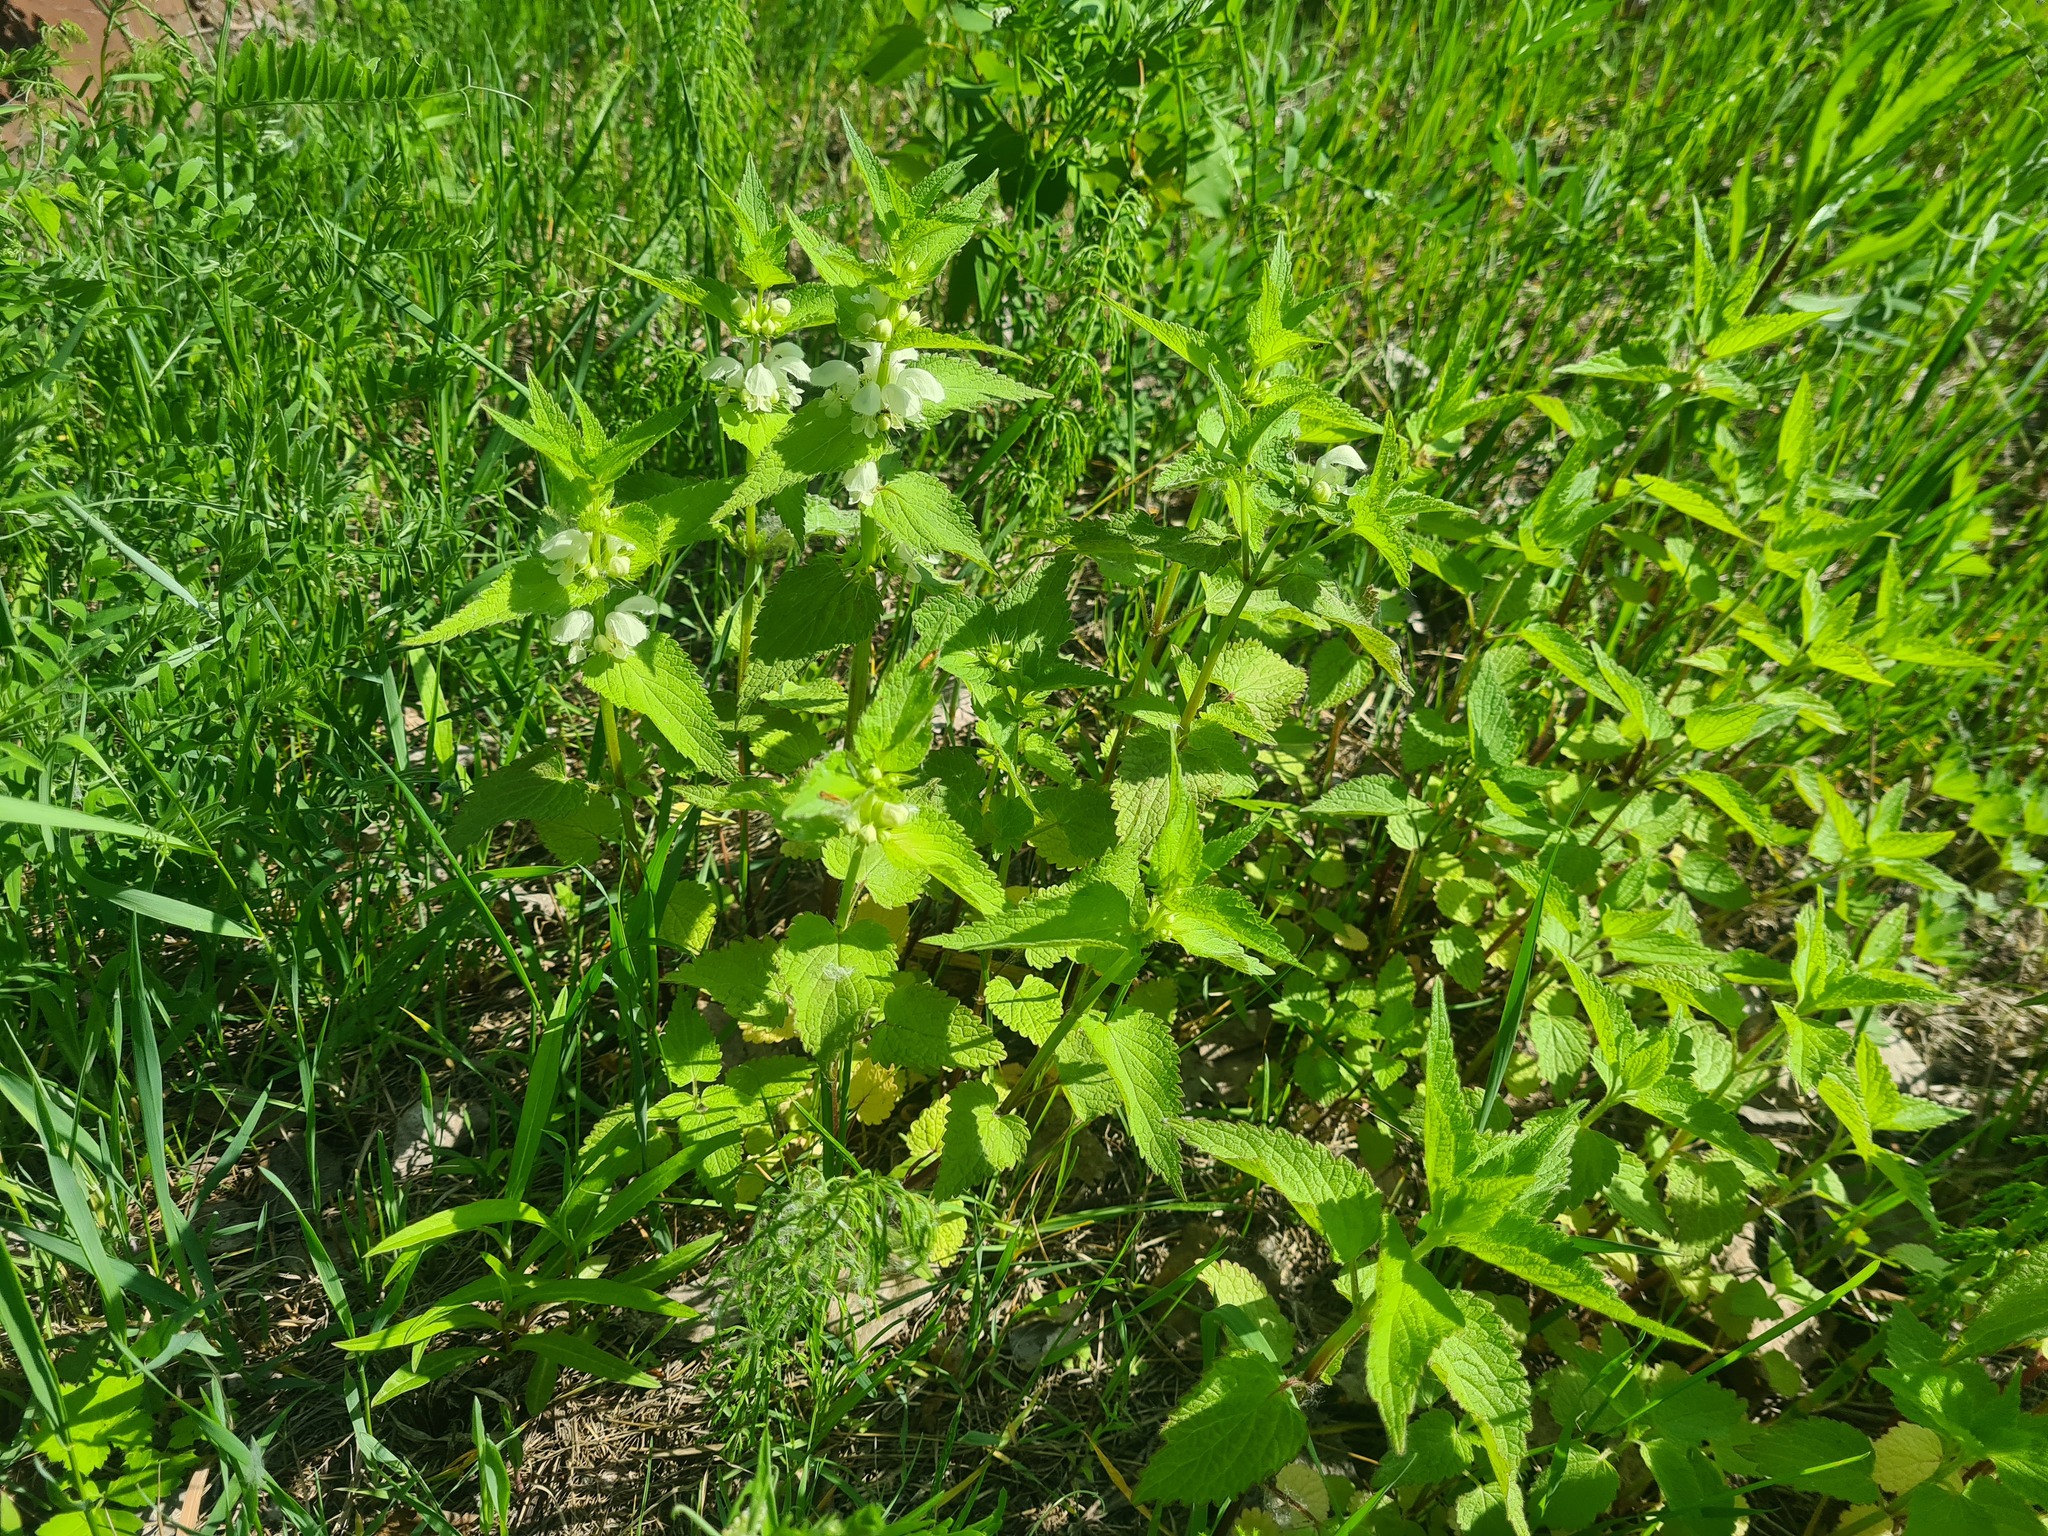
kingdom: Plantae
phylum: Tracheophyta
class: Magnoliopsida
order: Lamiales
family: Lamiaceae
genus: Lamium
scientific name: Lamium album
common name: White dead-nettle
